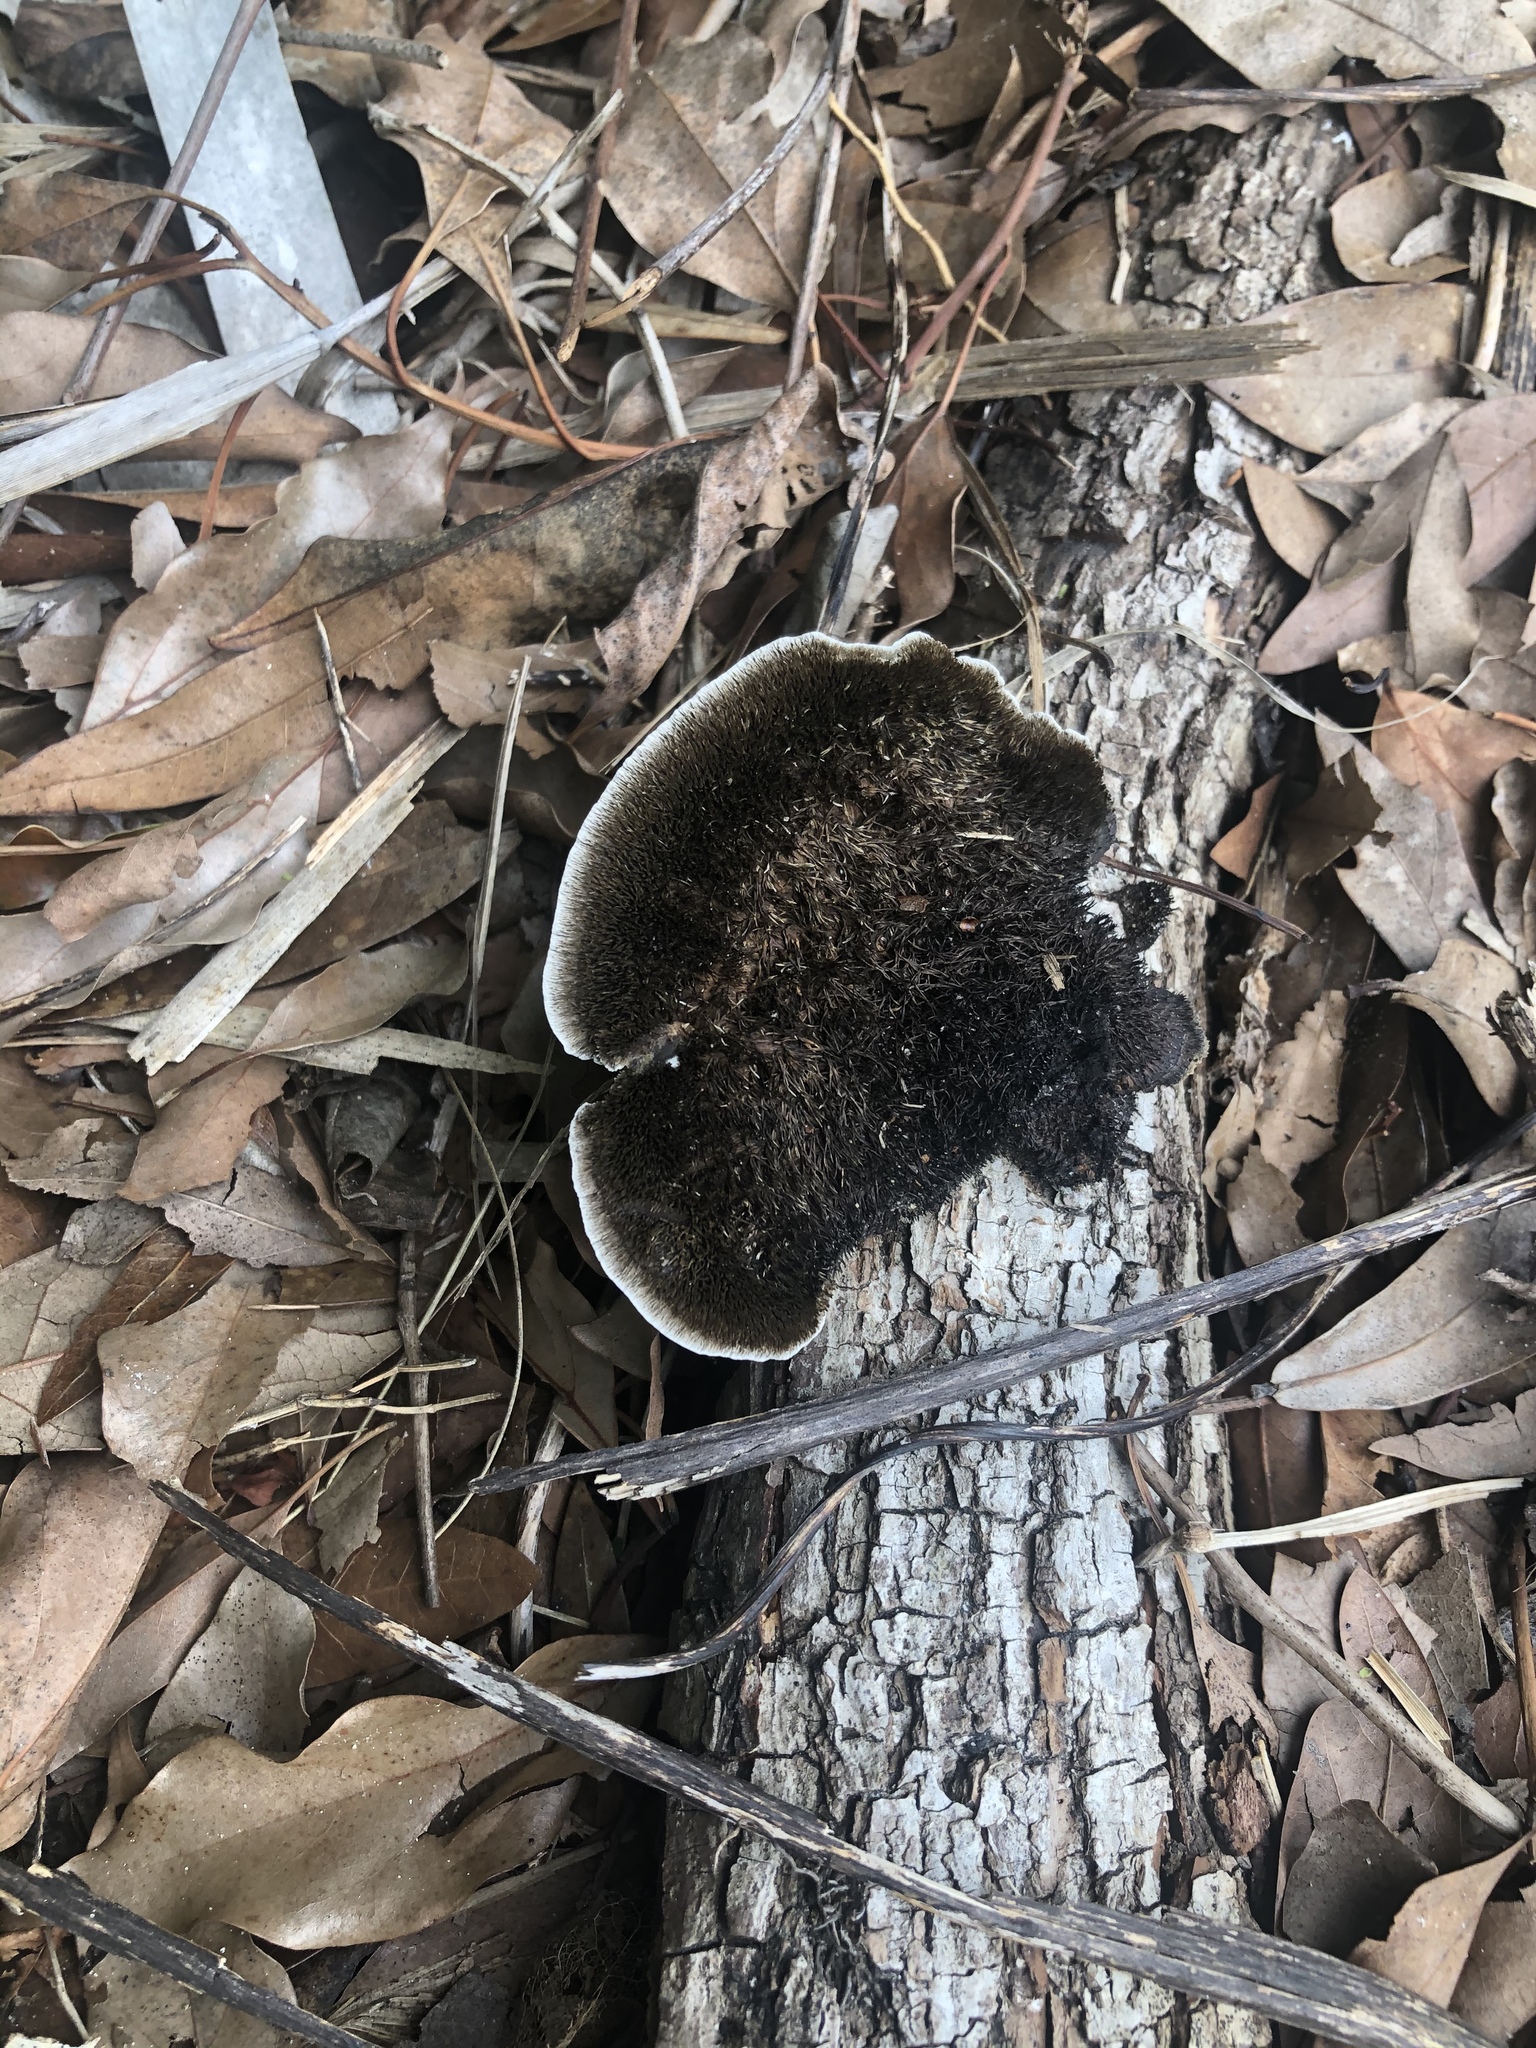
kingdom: Fungi
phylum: Basidiomycota
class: Agaricomycetes
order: Polyporales
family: Cerrenaceae
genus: Cerrena
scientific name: Cerrena hydnoides
